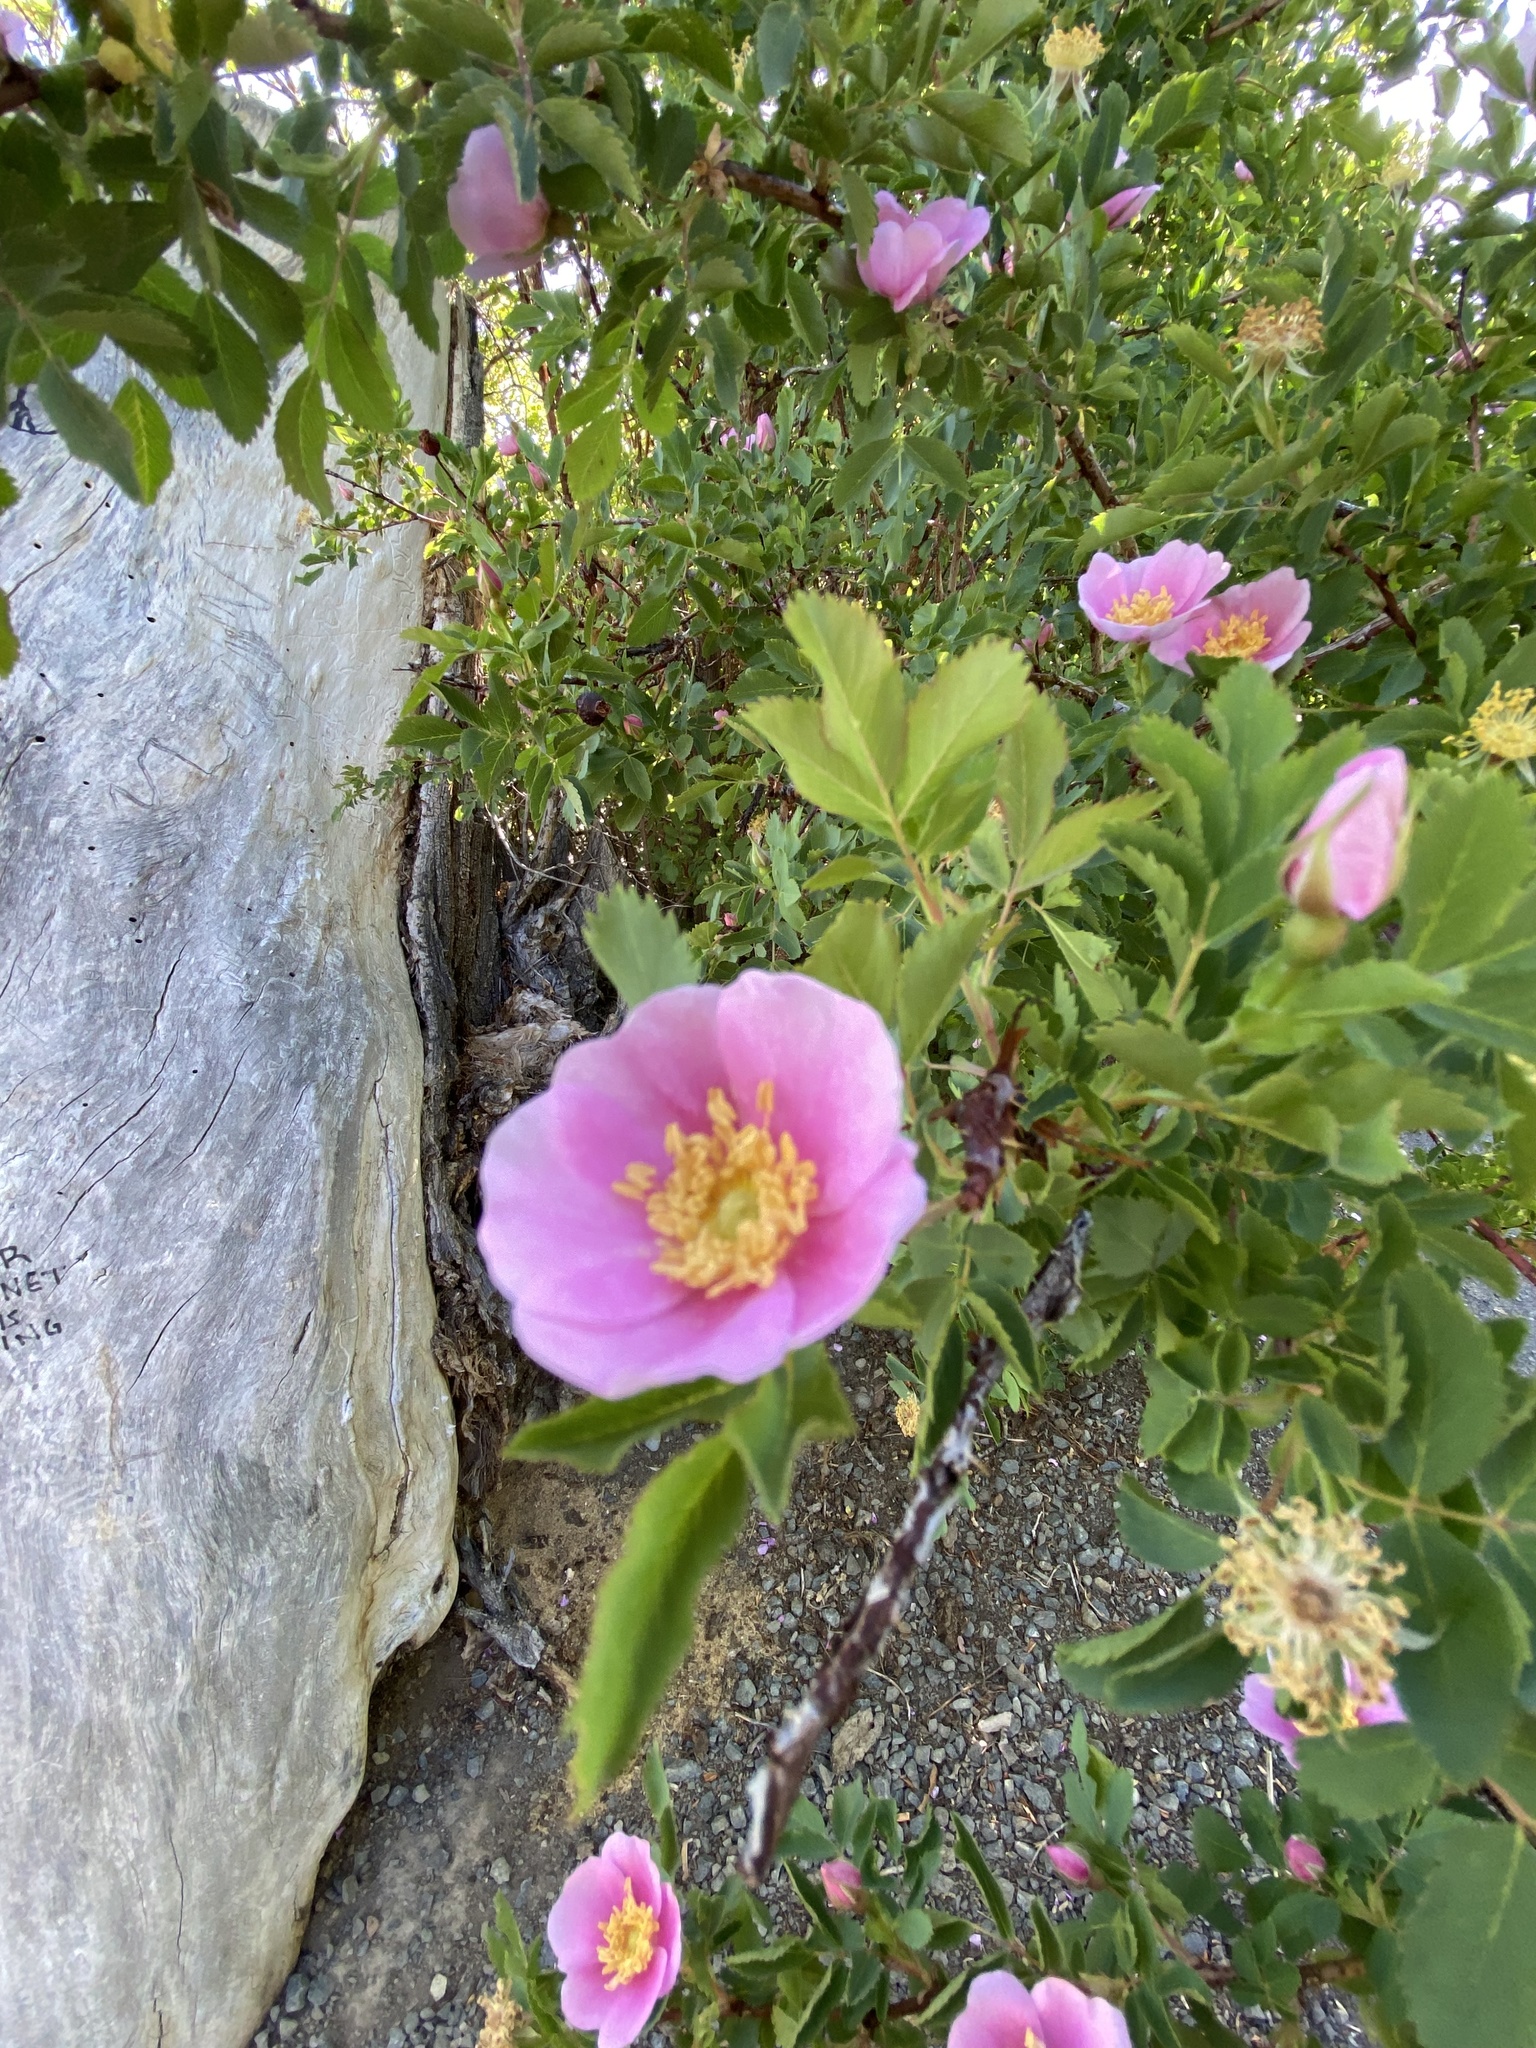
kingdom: Plantae
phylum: Tracheophyta
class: Magnoliopsida
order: Rosales
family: Rosaceae
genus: Rosa
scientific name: Rosa woodsii
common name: Woods's rose
